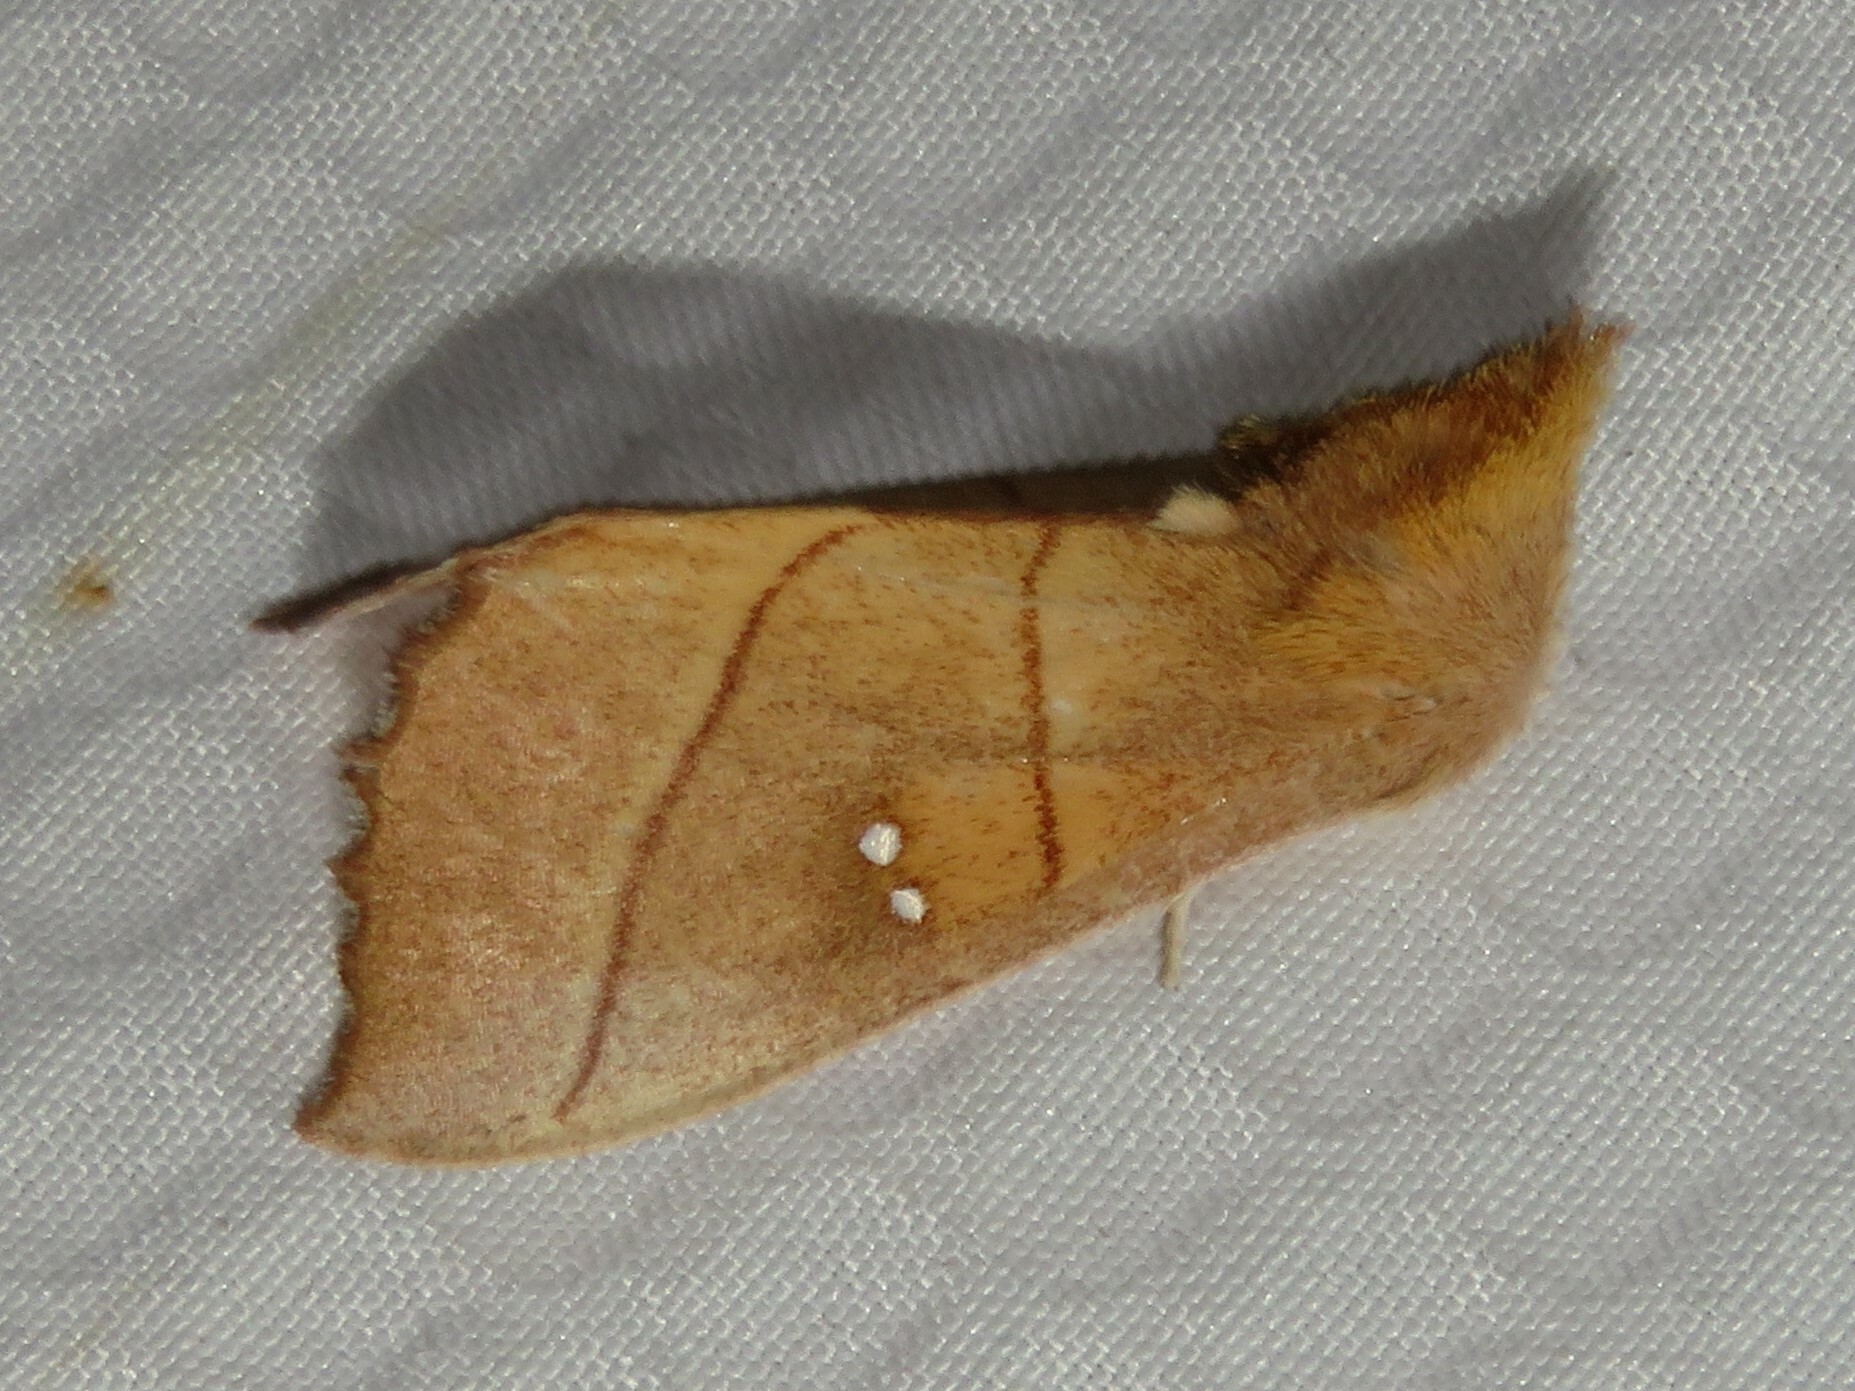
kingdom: Animalia
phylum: Arthropoda
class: Insecta
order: Lepidoptera
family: Notodontidae
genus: Nadata
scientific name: Nadata gibbosa
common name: White-dotted prominent
